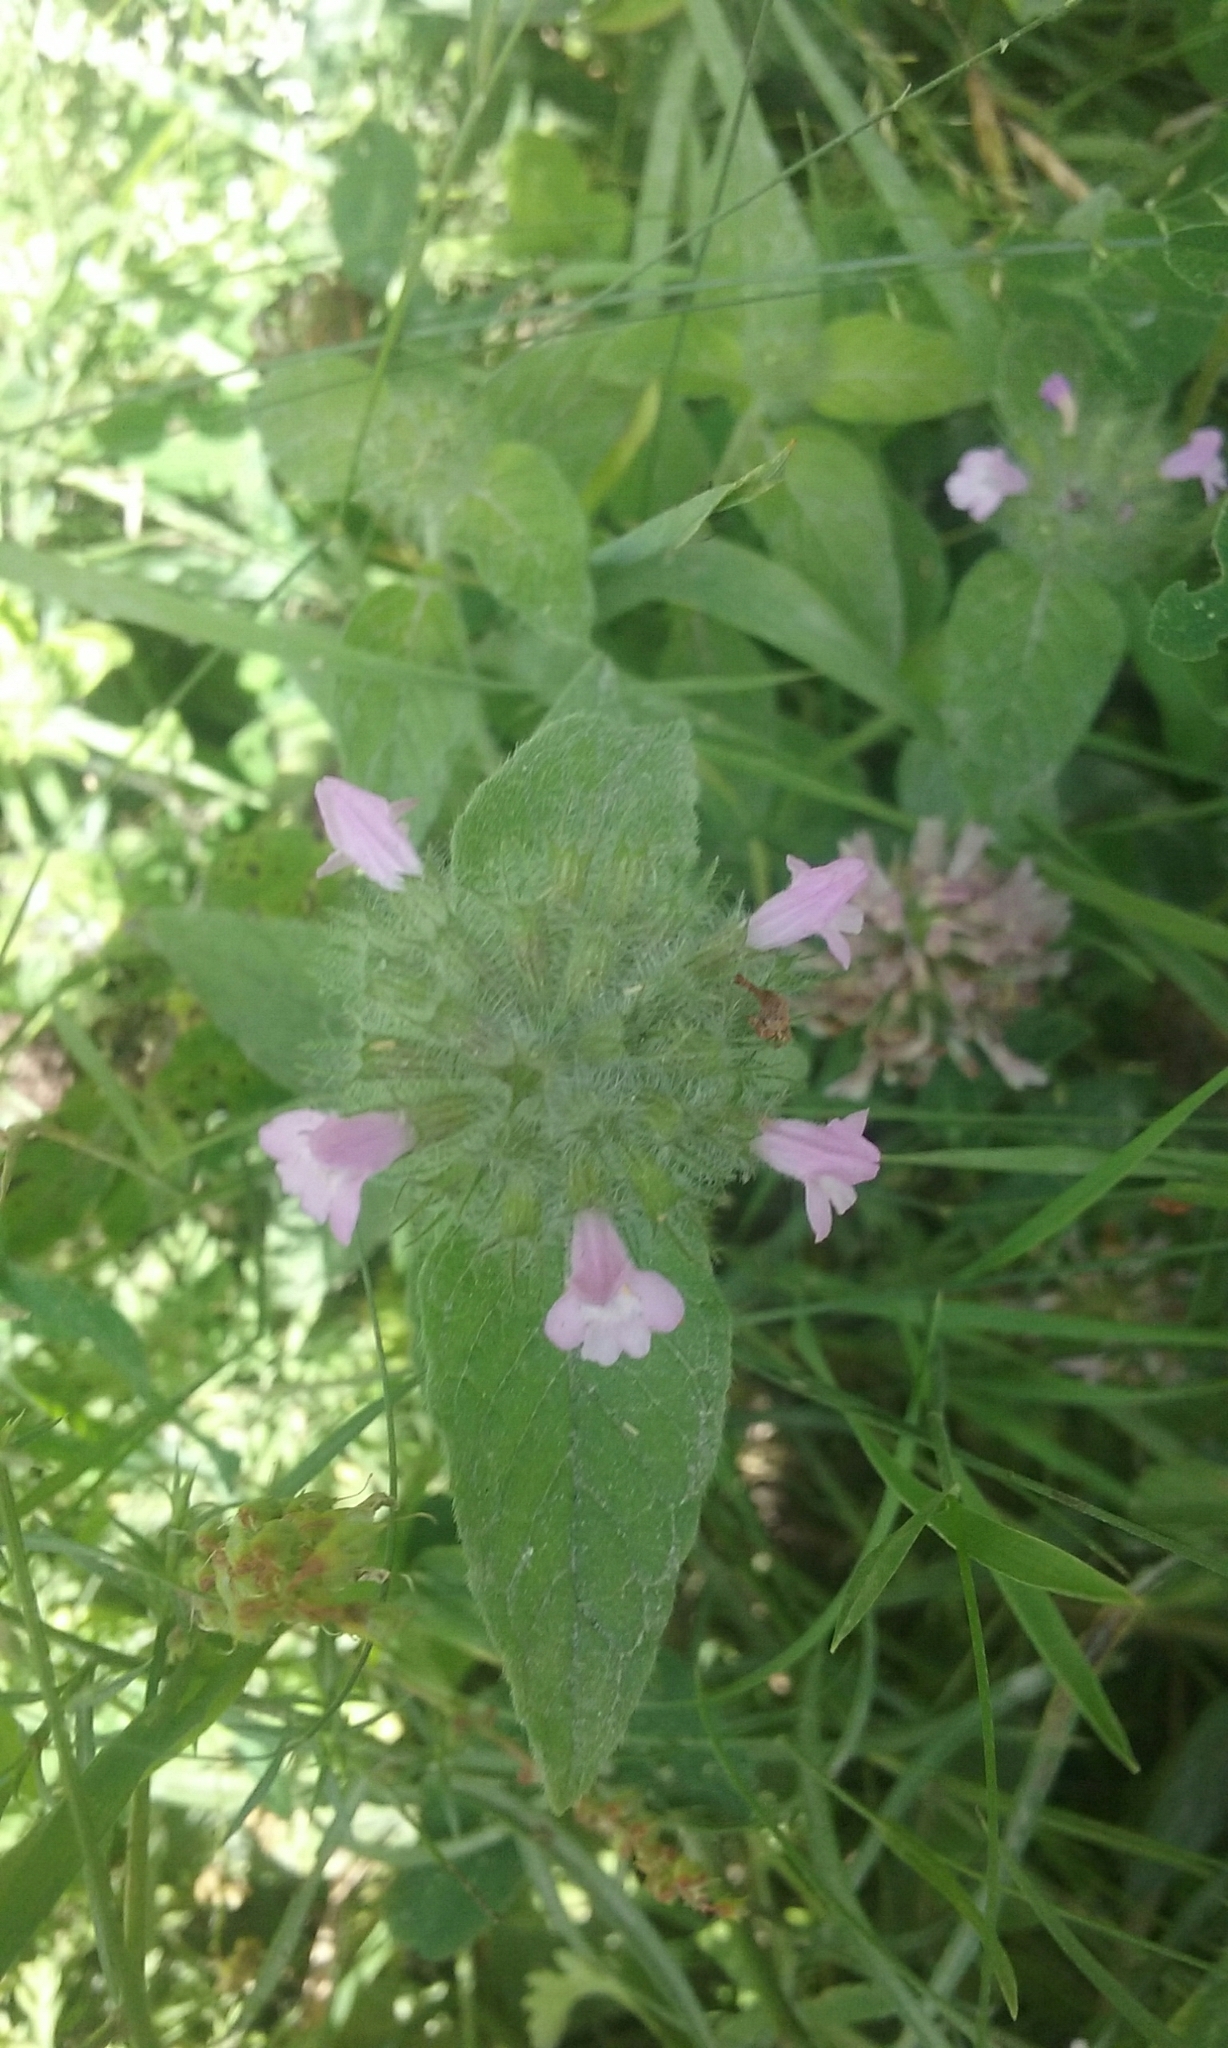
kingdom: Plantae
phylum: Tracheophyta
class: Magnoliopsida
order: Lamiales
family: Lamiaceae
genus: Clinopodium
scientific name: Clinopodium vulgare
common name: Wild basil
